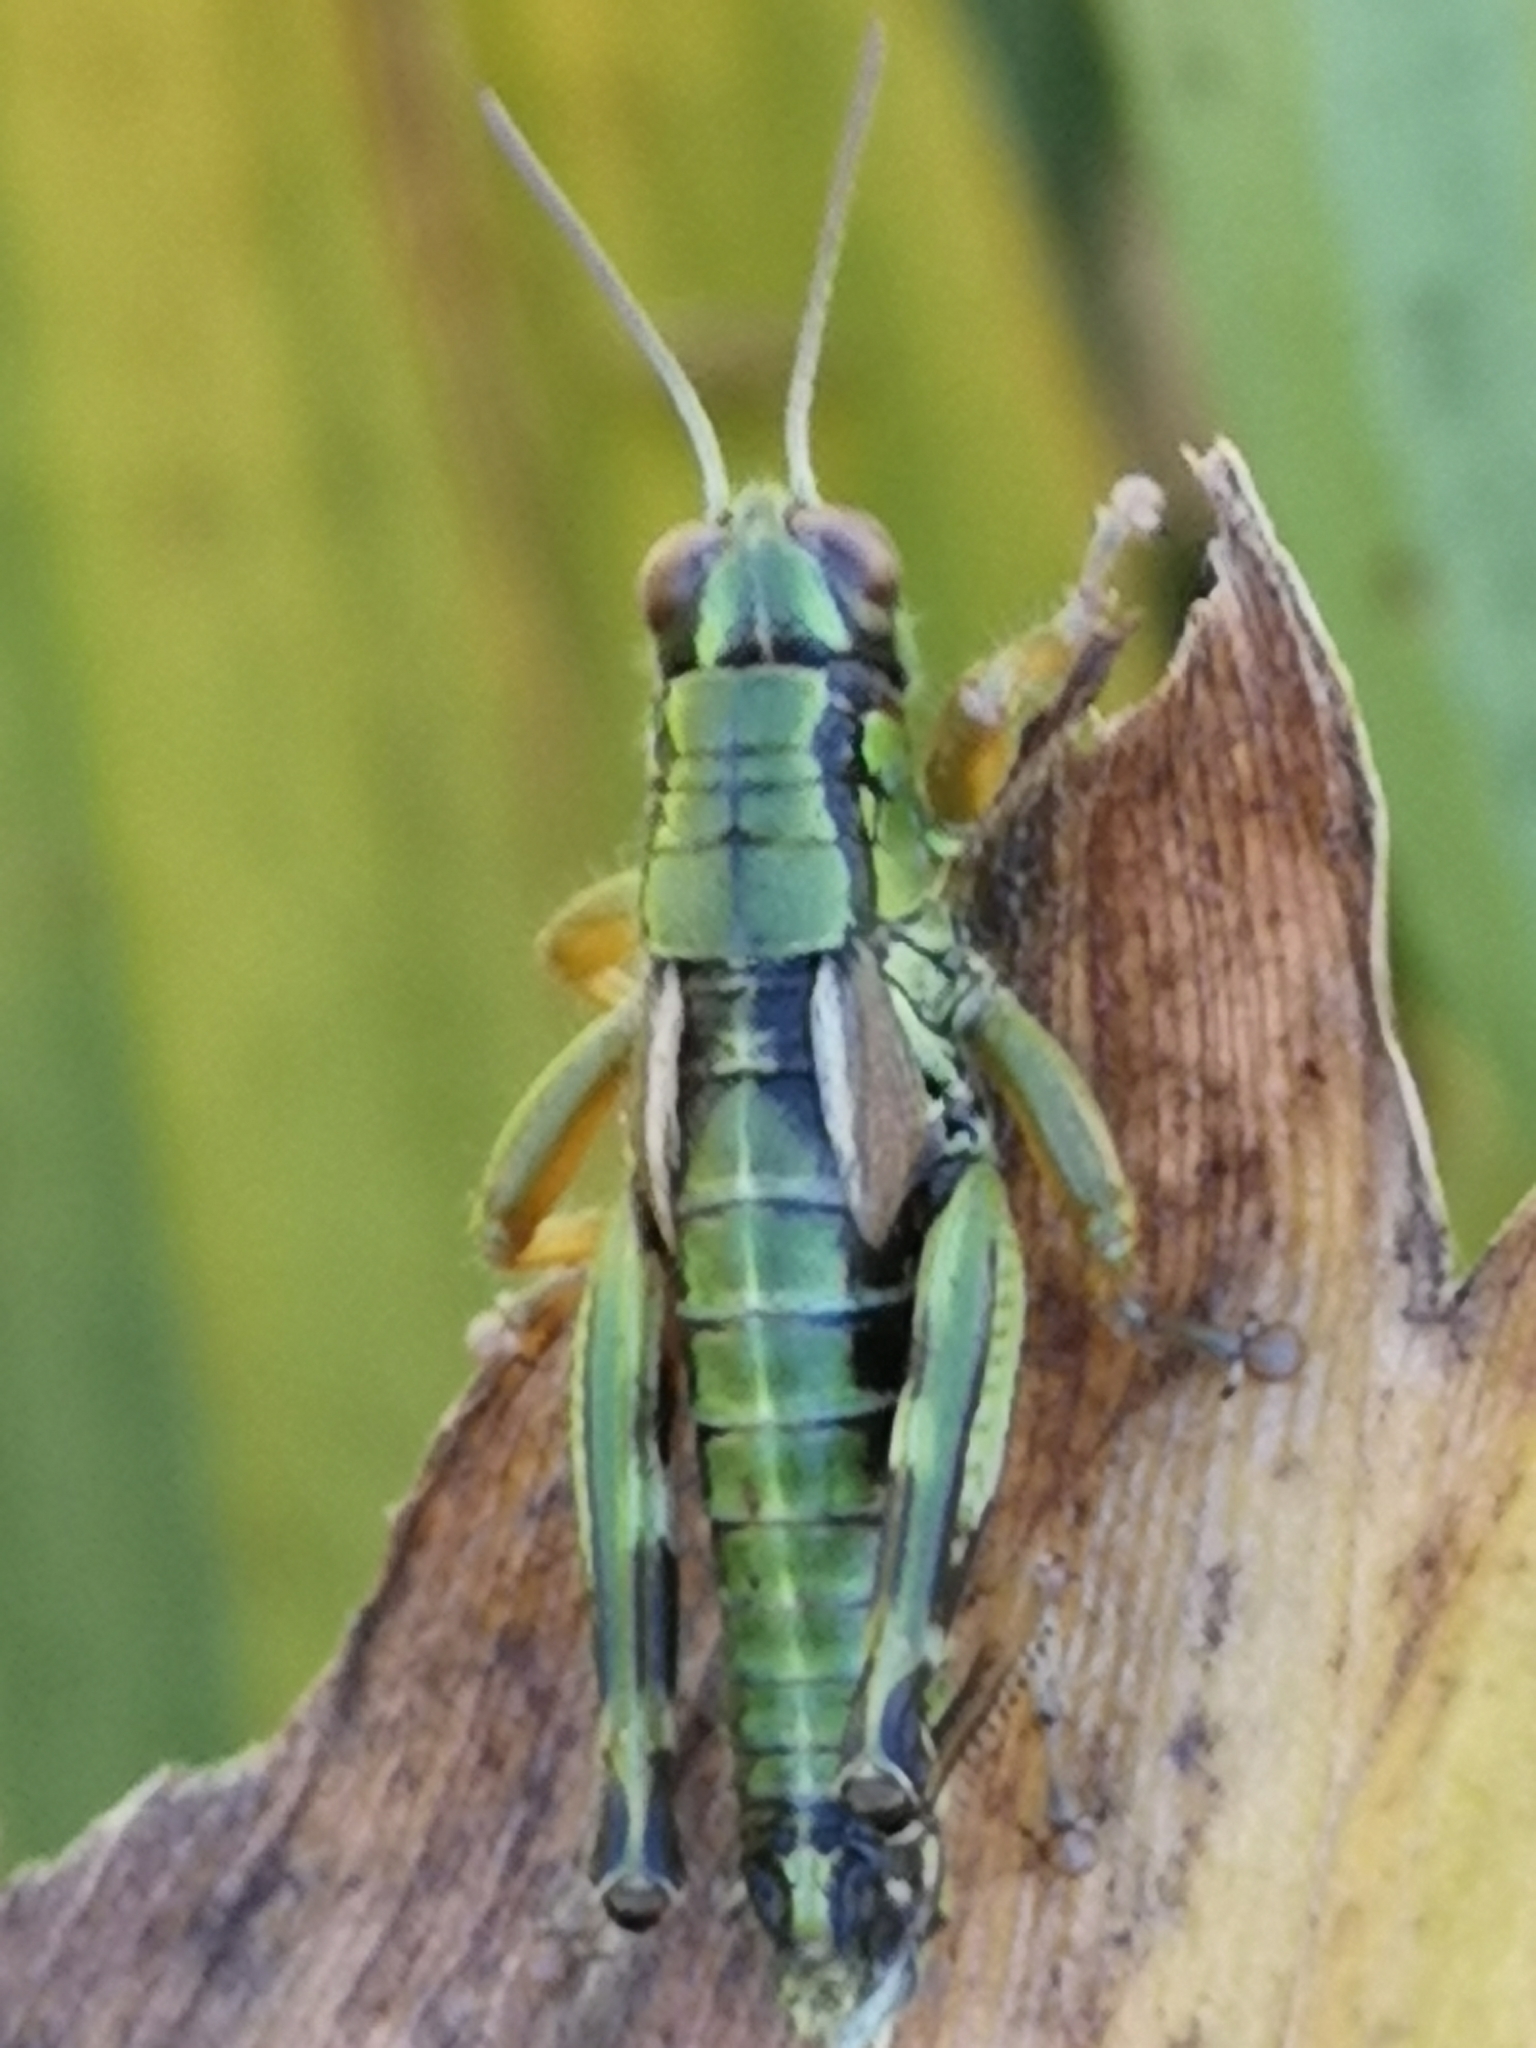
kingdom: Animalia
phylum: Arthropoda
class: Insecta
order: Orthoptera
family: Acrididae
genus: Miramella
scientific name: Miramella carinthiaca
